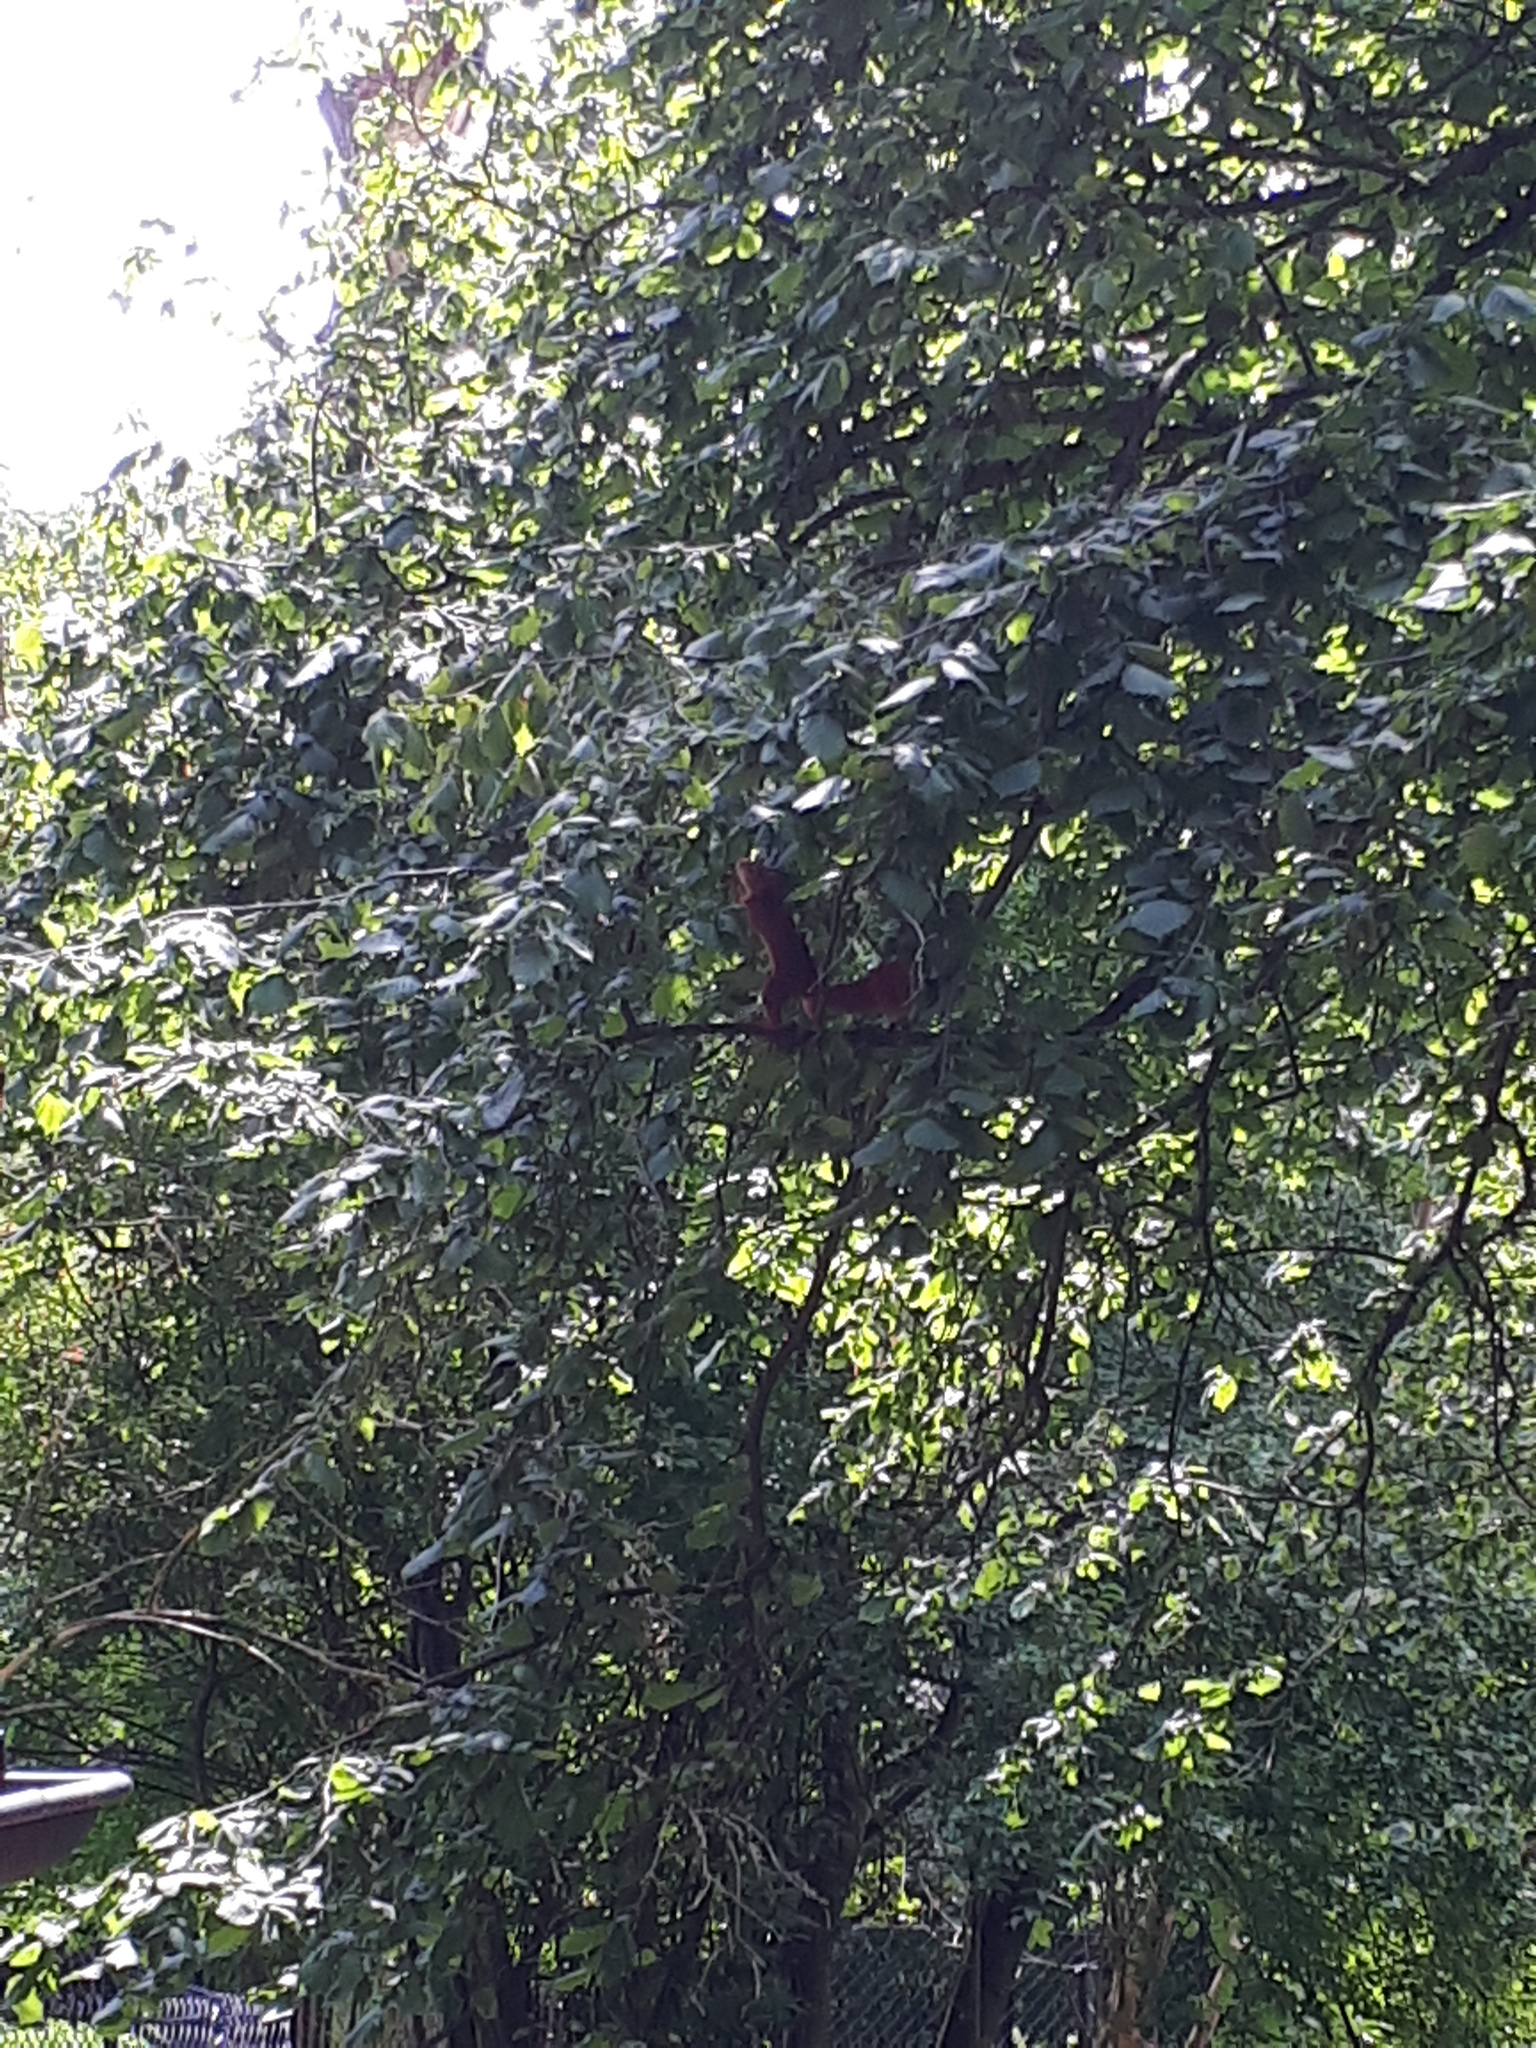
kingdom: Animalia
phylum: Chordata
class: Mammalia
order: Rodentia
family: Sciuridae
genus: Sciurus
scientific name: Sciurus vulgaris
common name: Eurasian red squirrel
